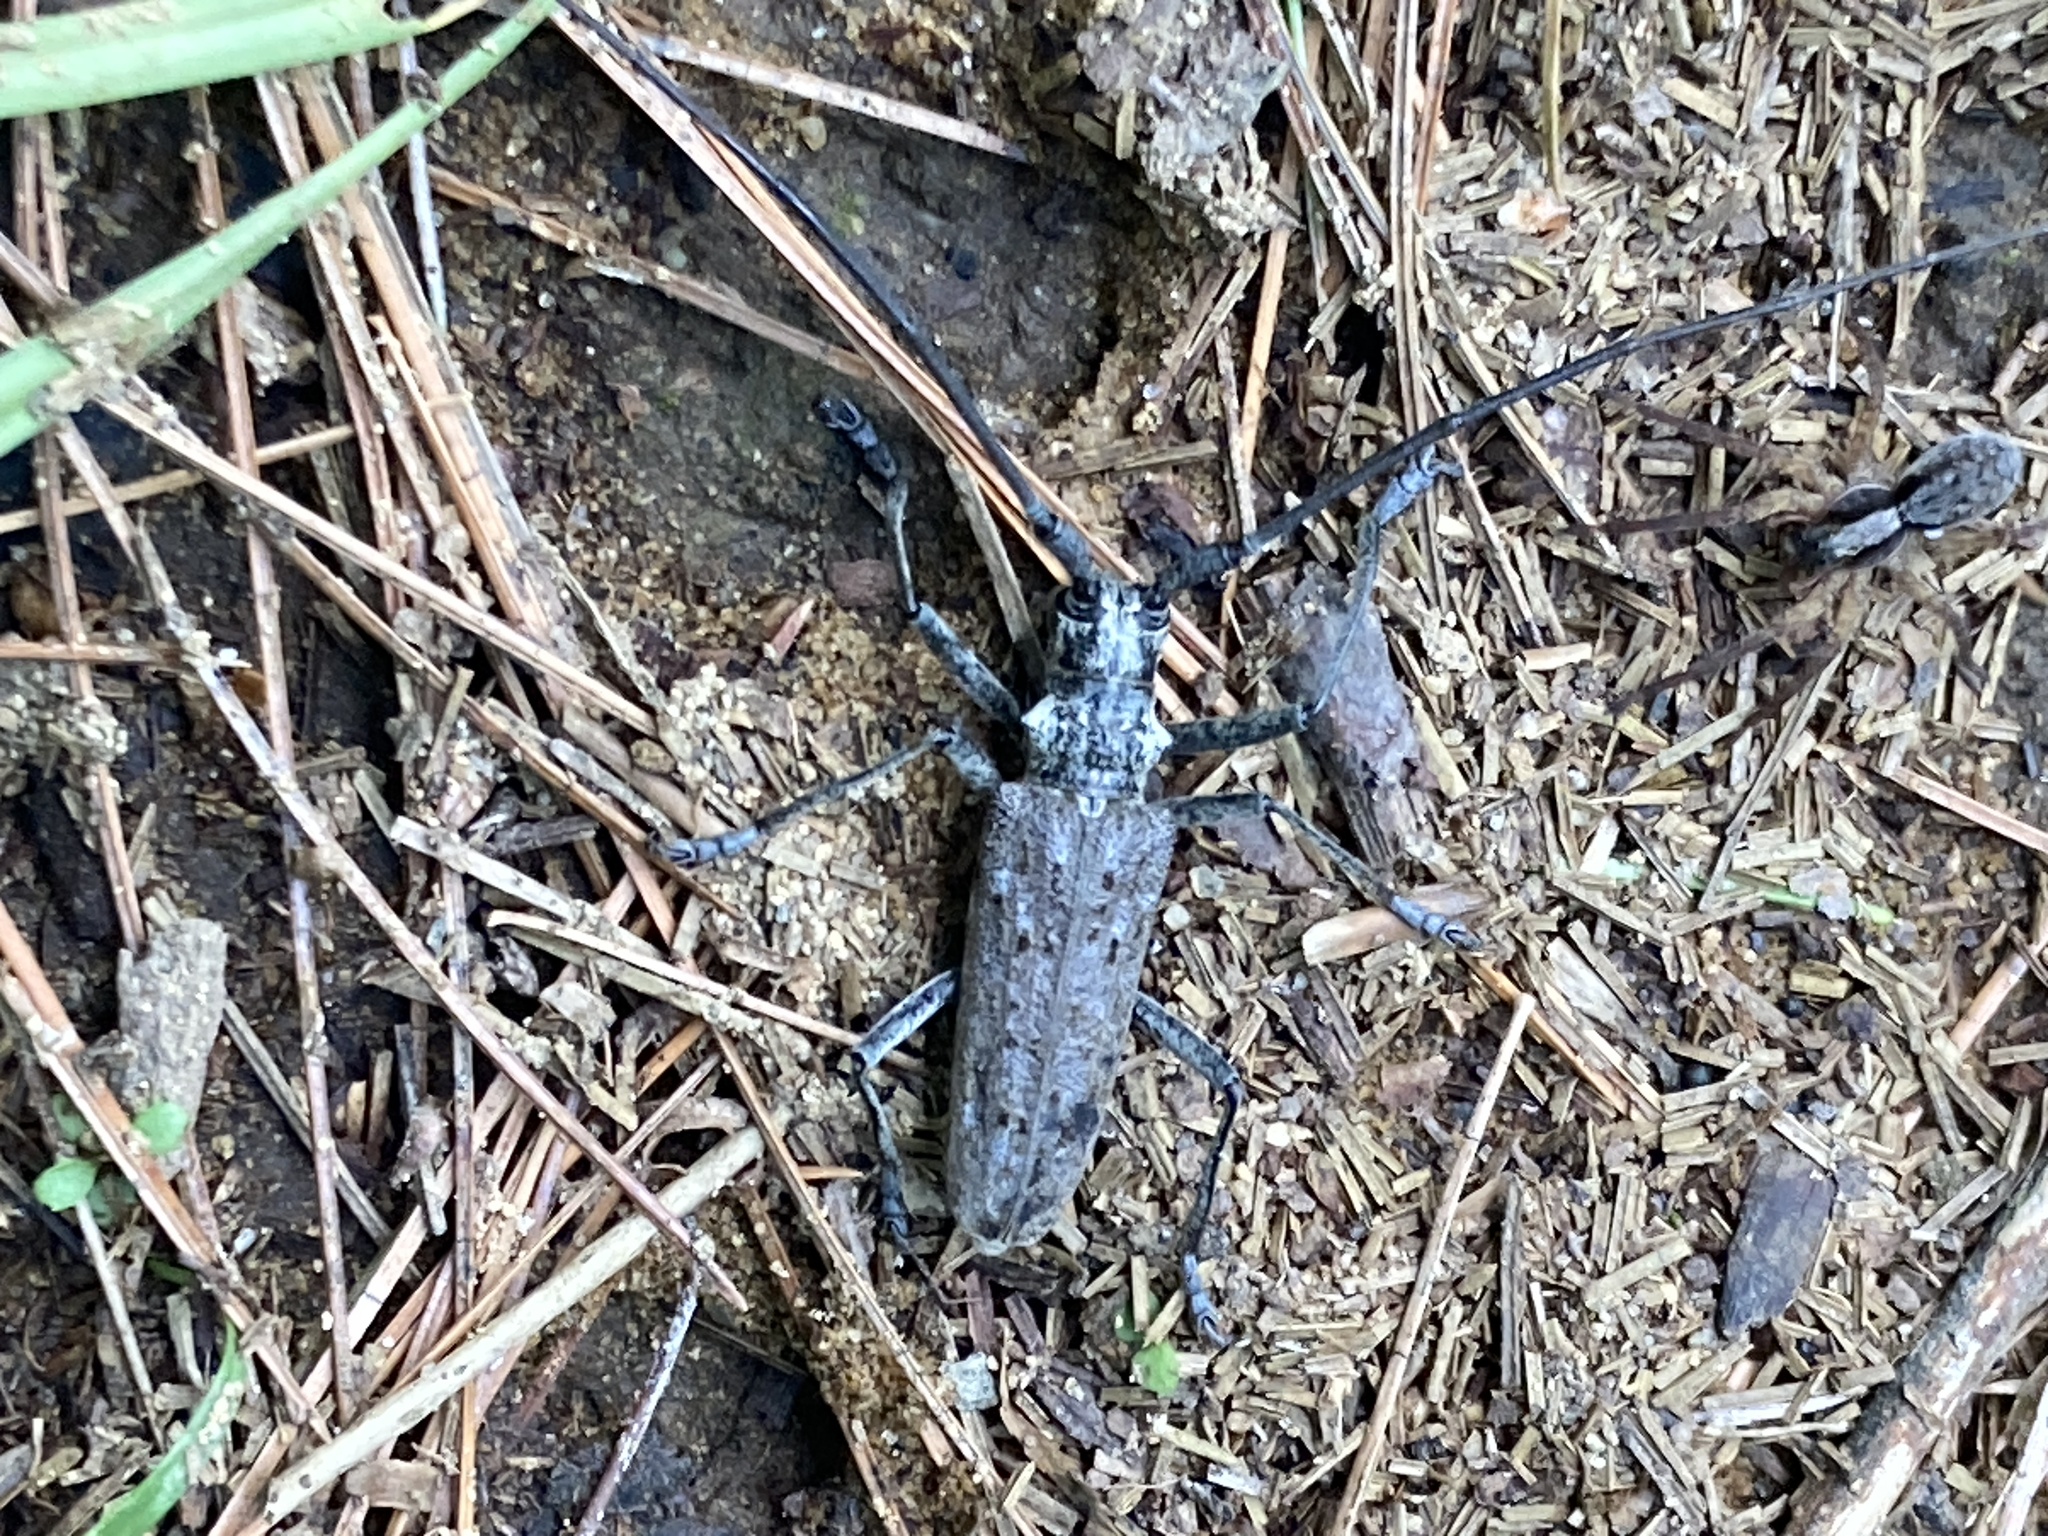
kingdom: Animalia
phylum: Arthropoda
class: Insecta
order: Coleoptera
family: Cerambycidae
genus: Monochamus
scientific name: Monochamus notatus
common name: Northeastern pine sawyer beetle
